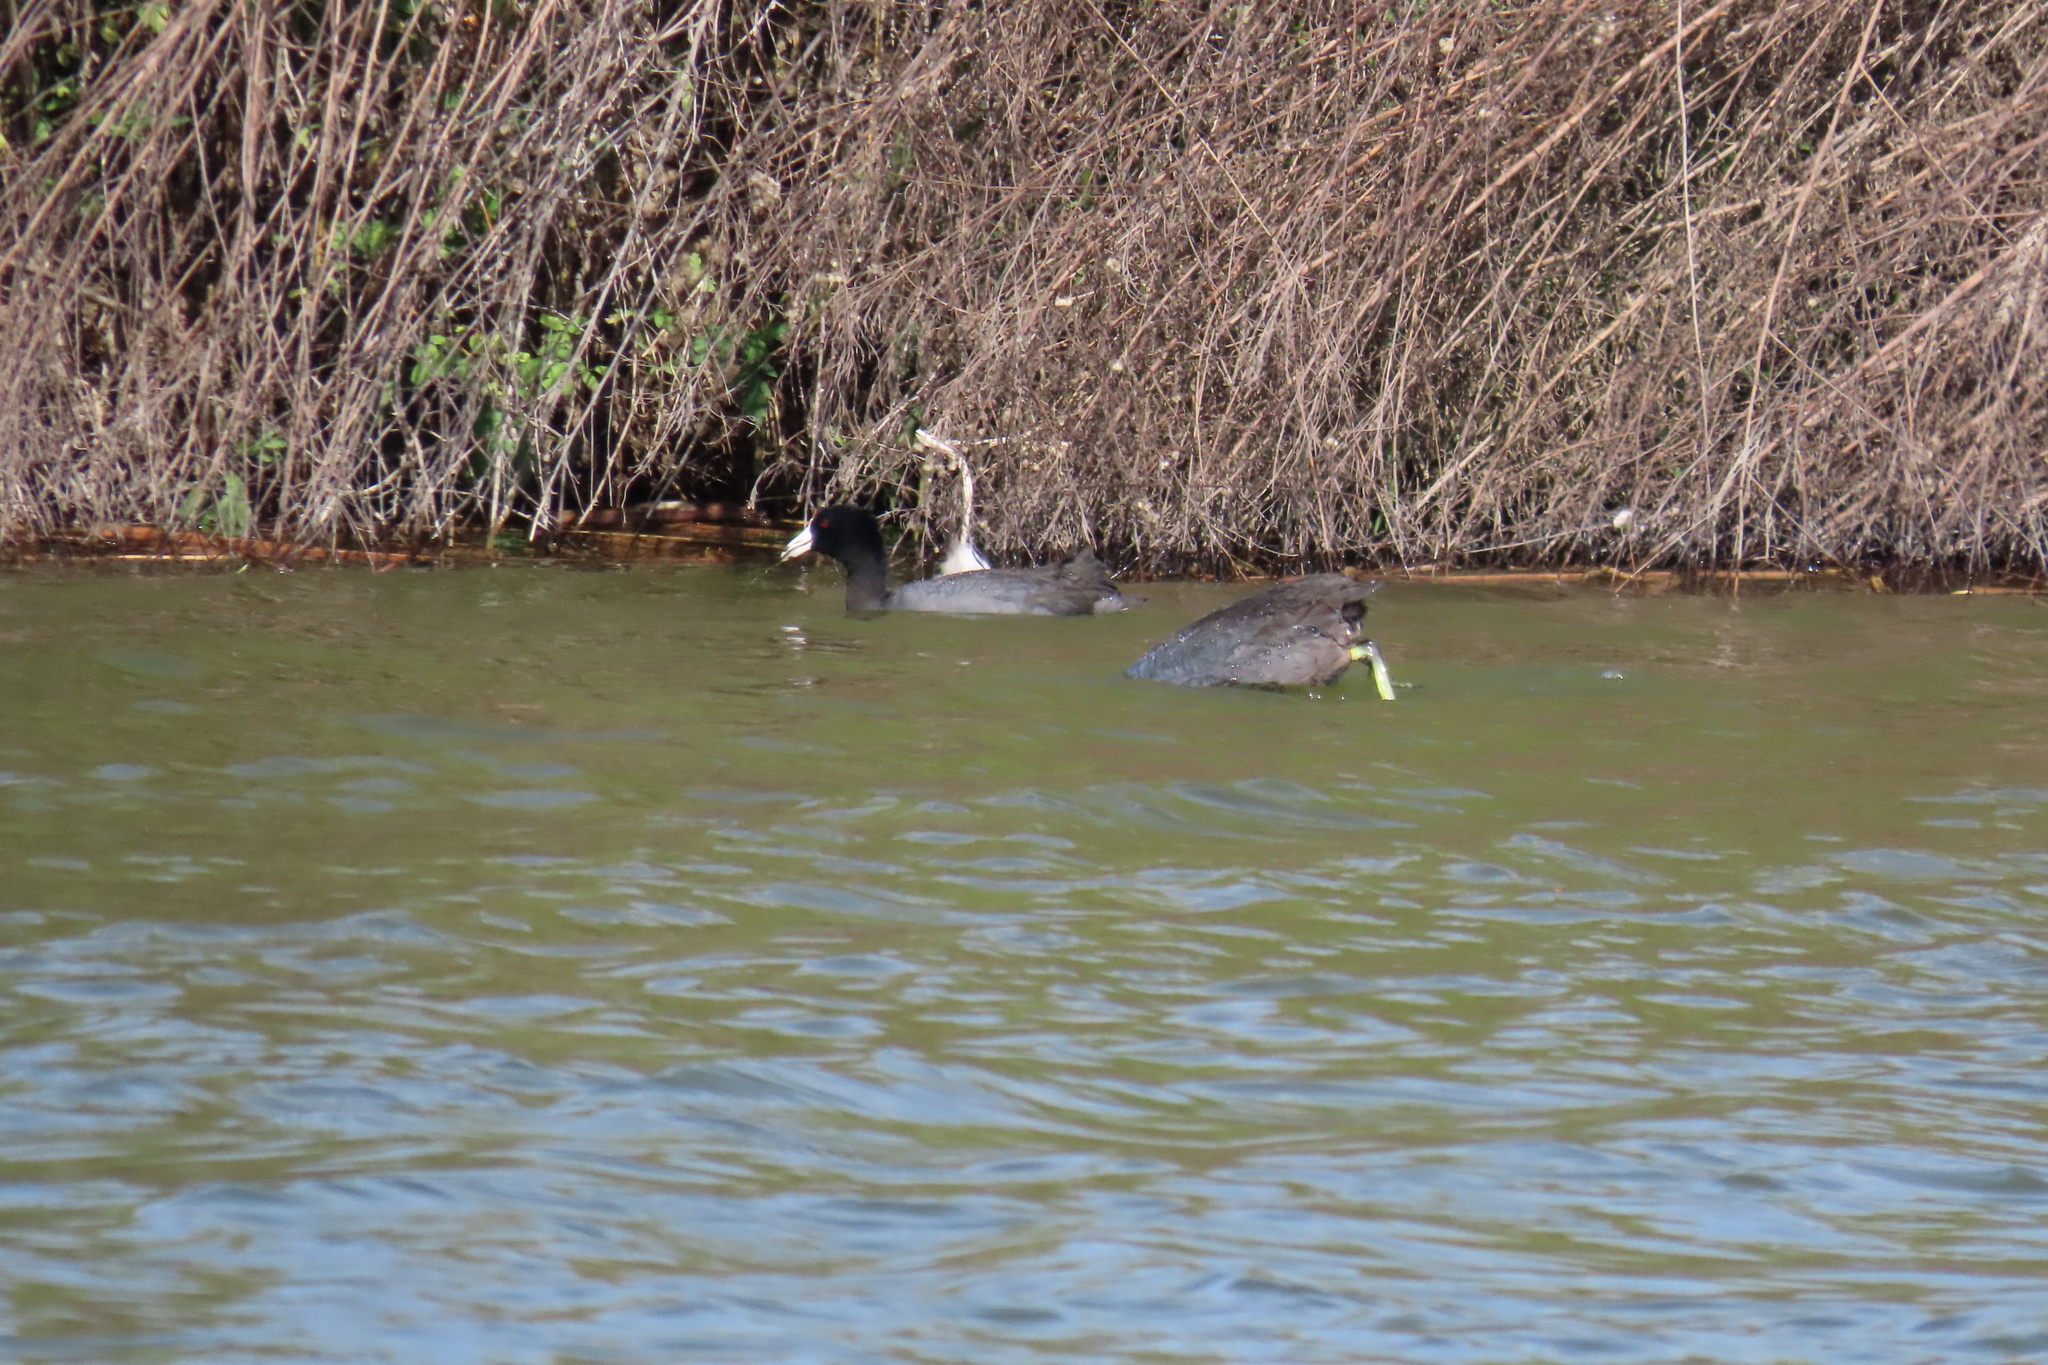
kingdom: Animalia
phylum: Chordata
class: Aves
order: Gruiformes
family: Rallidae
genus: Fulica
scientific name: Fulica americana
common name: American coot
